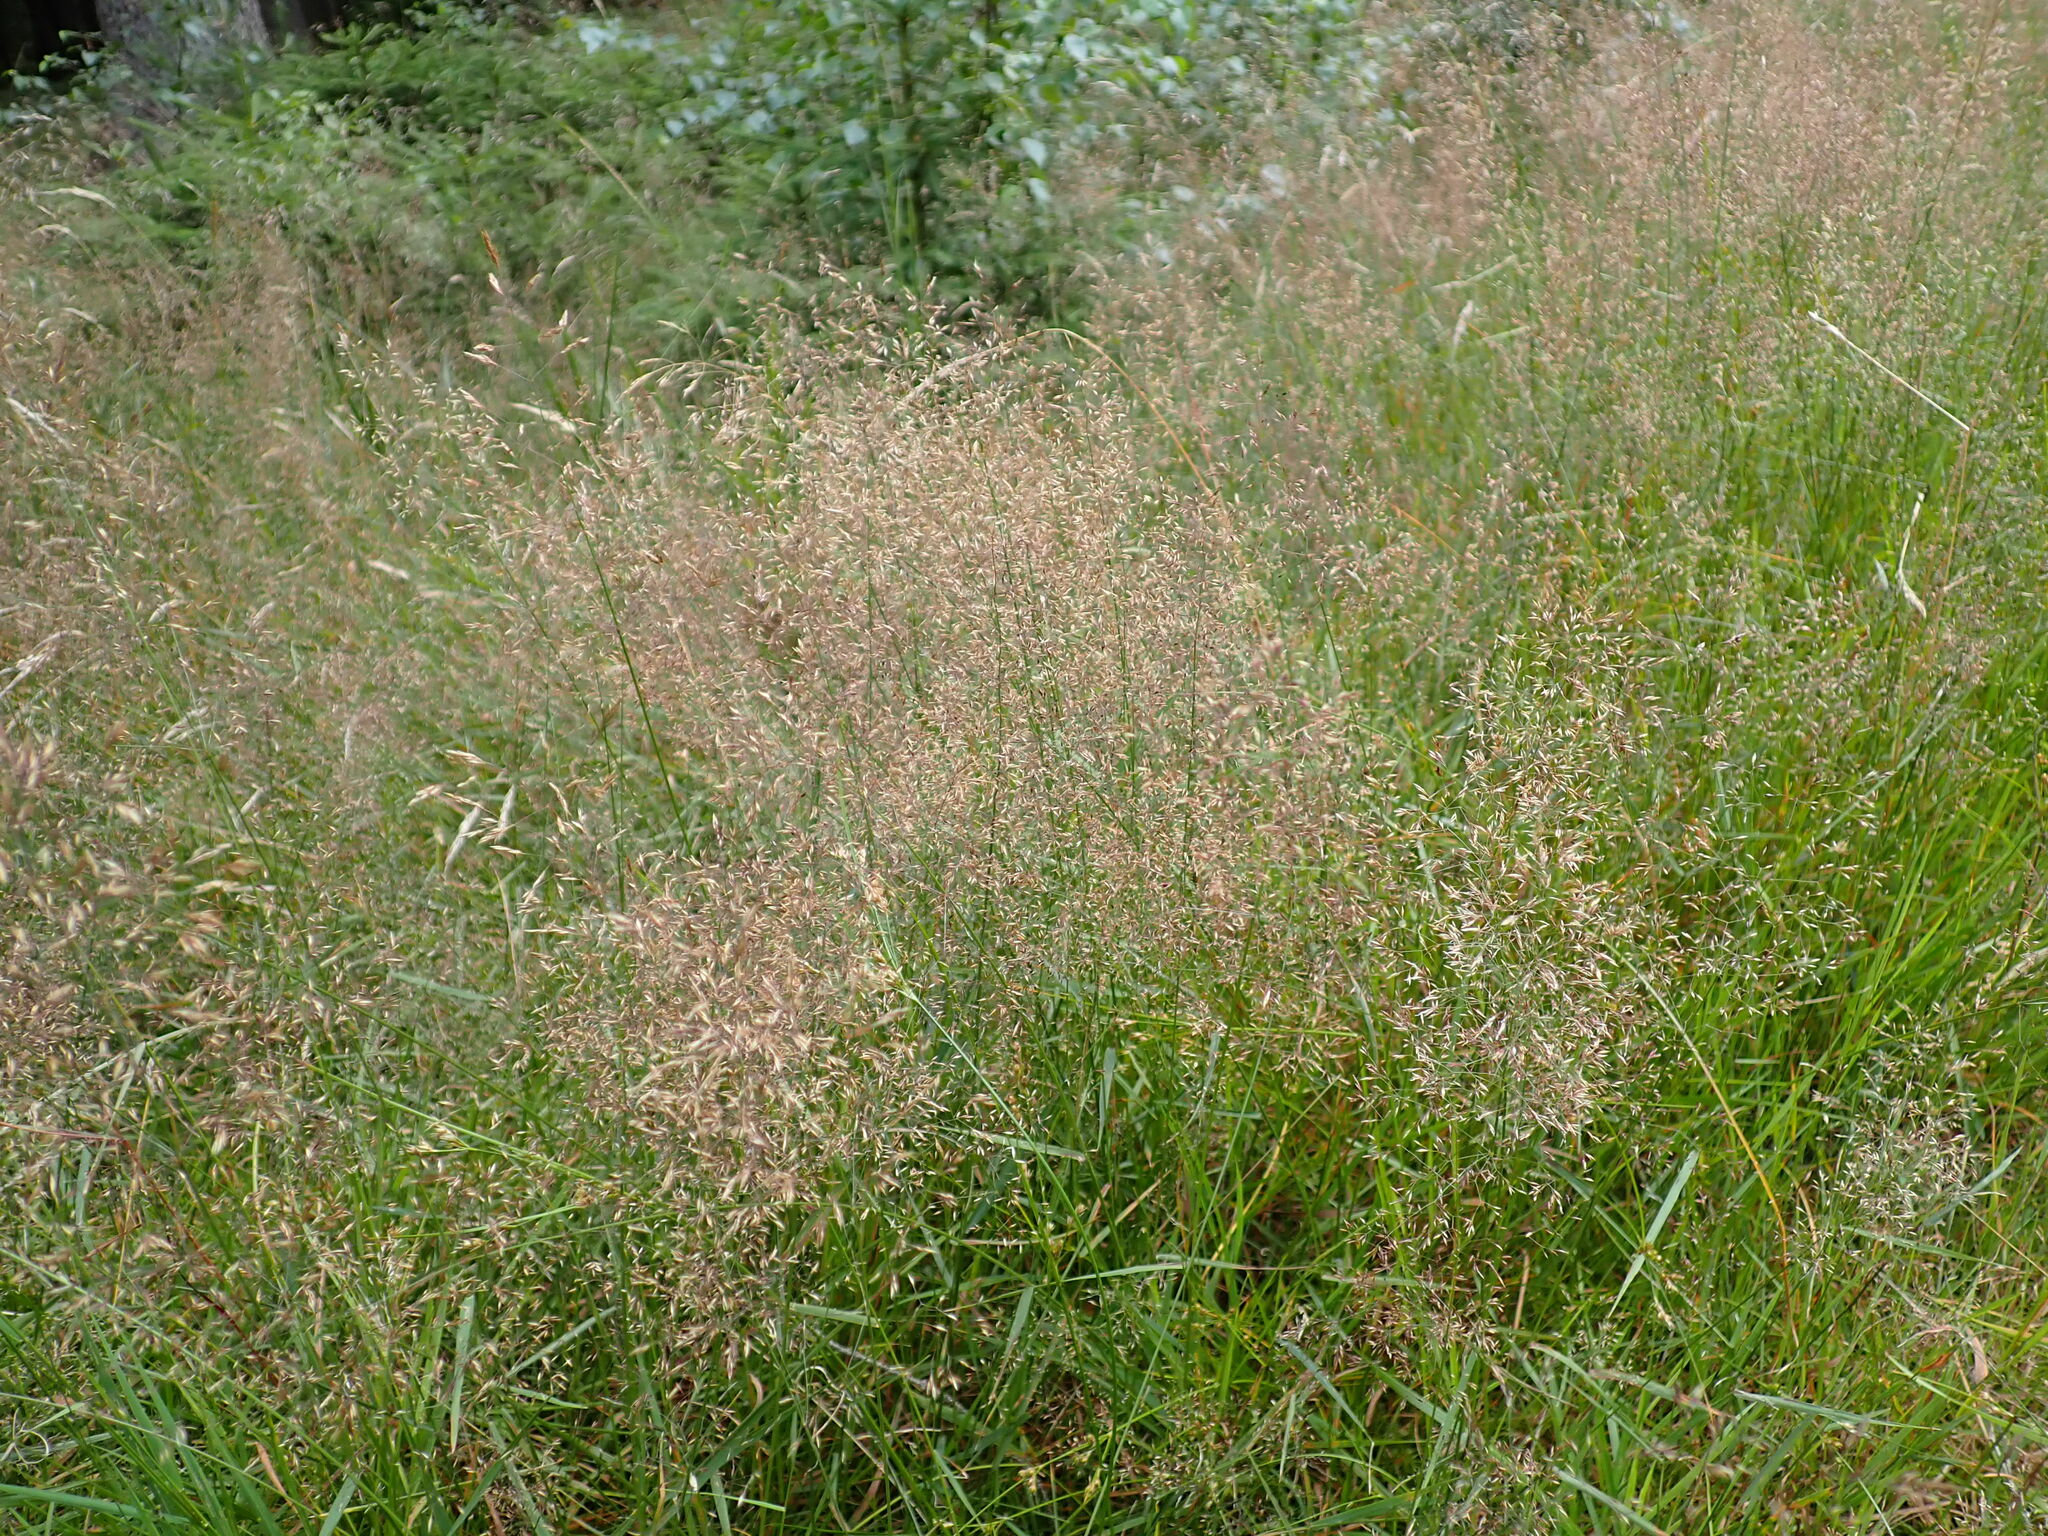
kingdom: Plantae
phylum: Tracheophyta
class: Liliopsida
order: Poales
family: Poaceae
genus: Agrostis
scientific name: Agrostis capillaris
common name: Colonial bentgrass
